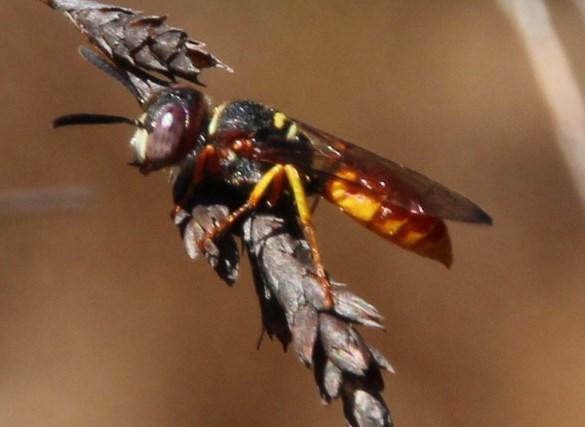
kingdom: Animalia
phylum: Arthropoda
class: Insecta
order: Hymenoptera
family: Crabronidae
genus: Philanthus
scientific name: Philanthus triangulum
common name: Bee wolf
